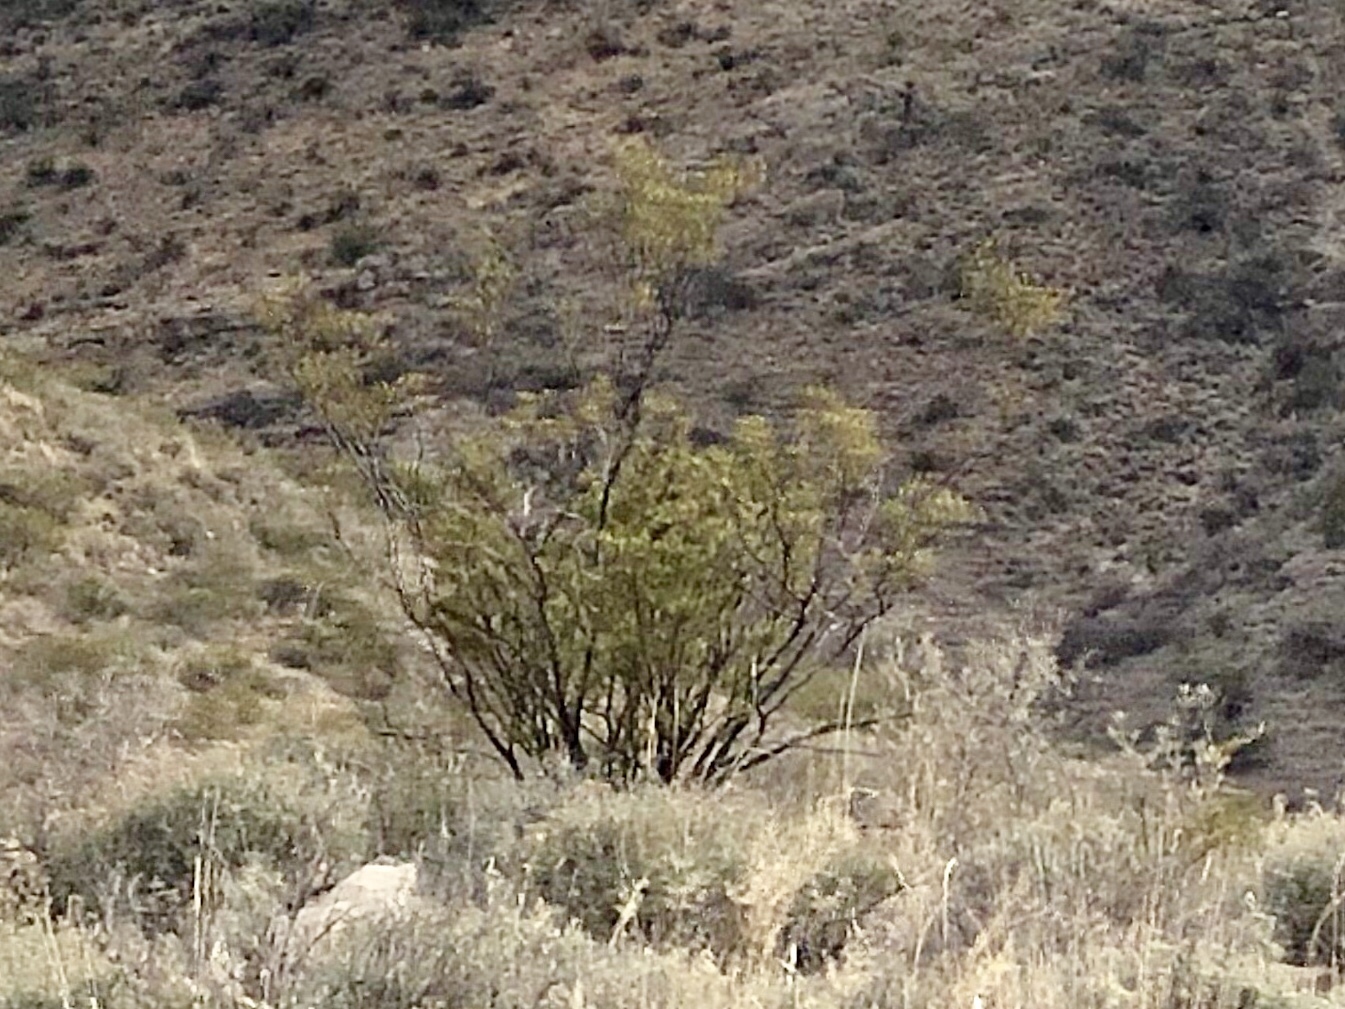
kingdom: Plantae
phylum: Tracheophyta
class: Magnoliopsida
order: Zygophyllales
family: Zygophyllaceae
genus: Larrea
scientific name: Larrea tridentata
